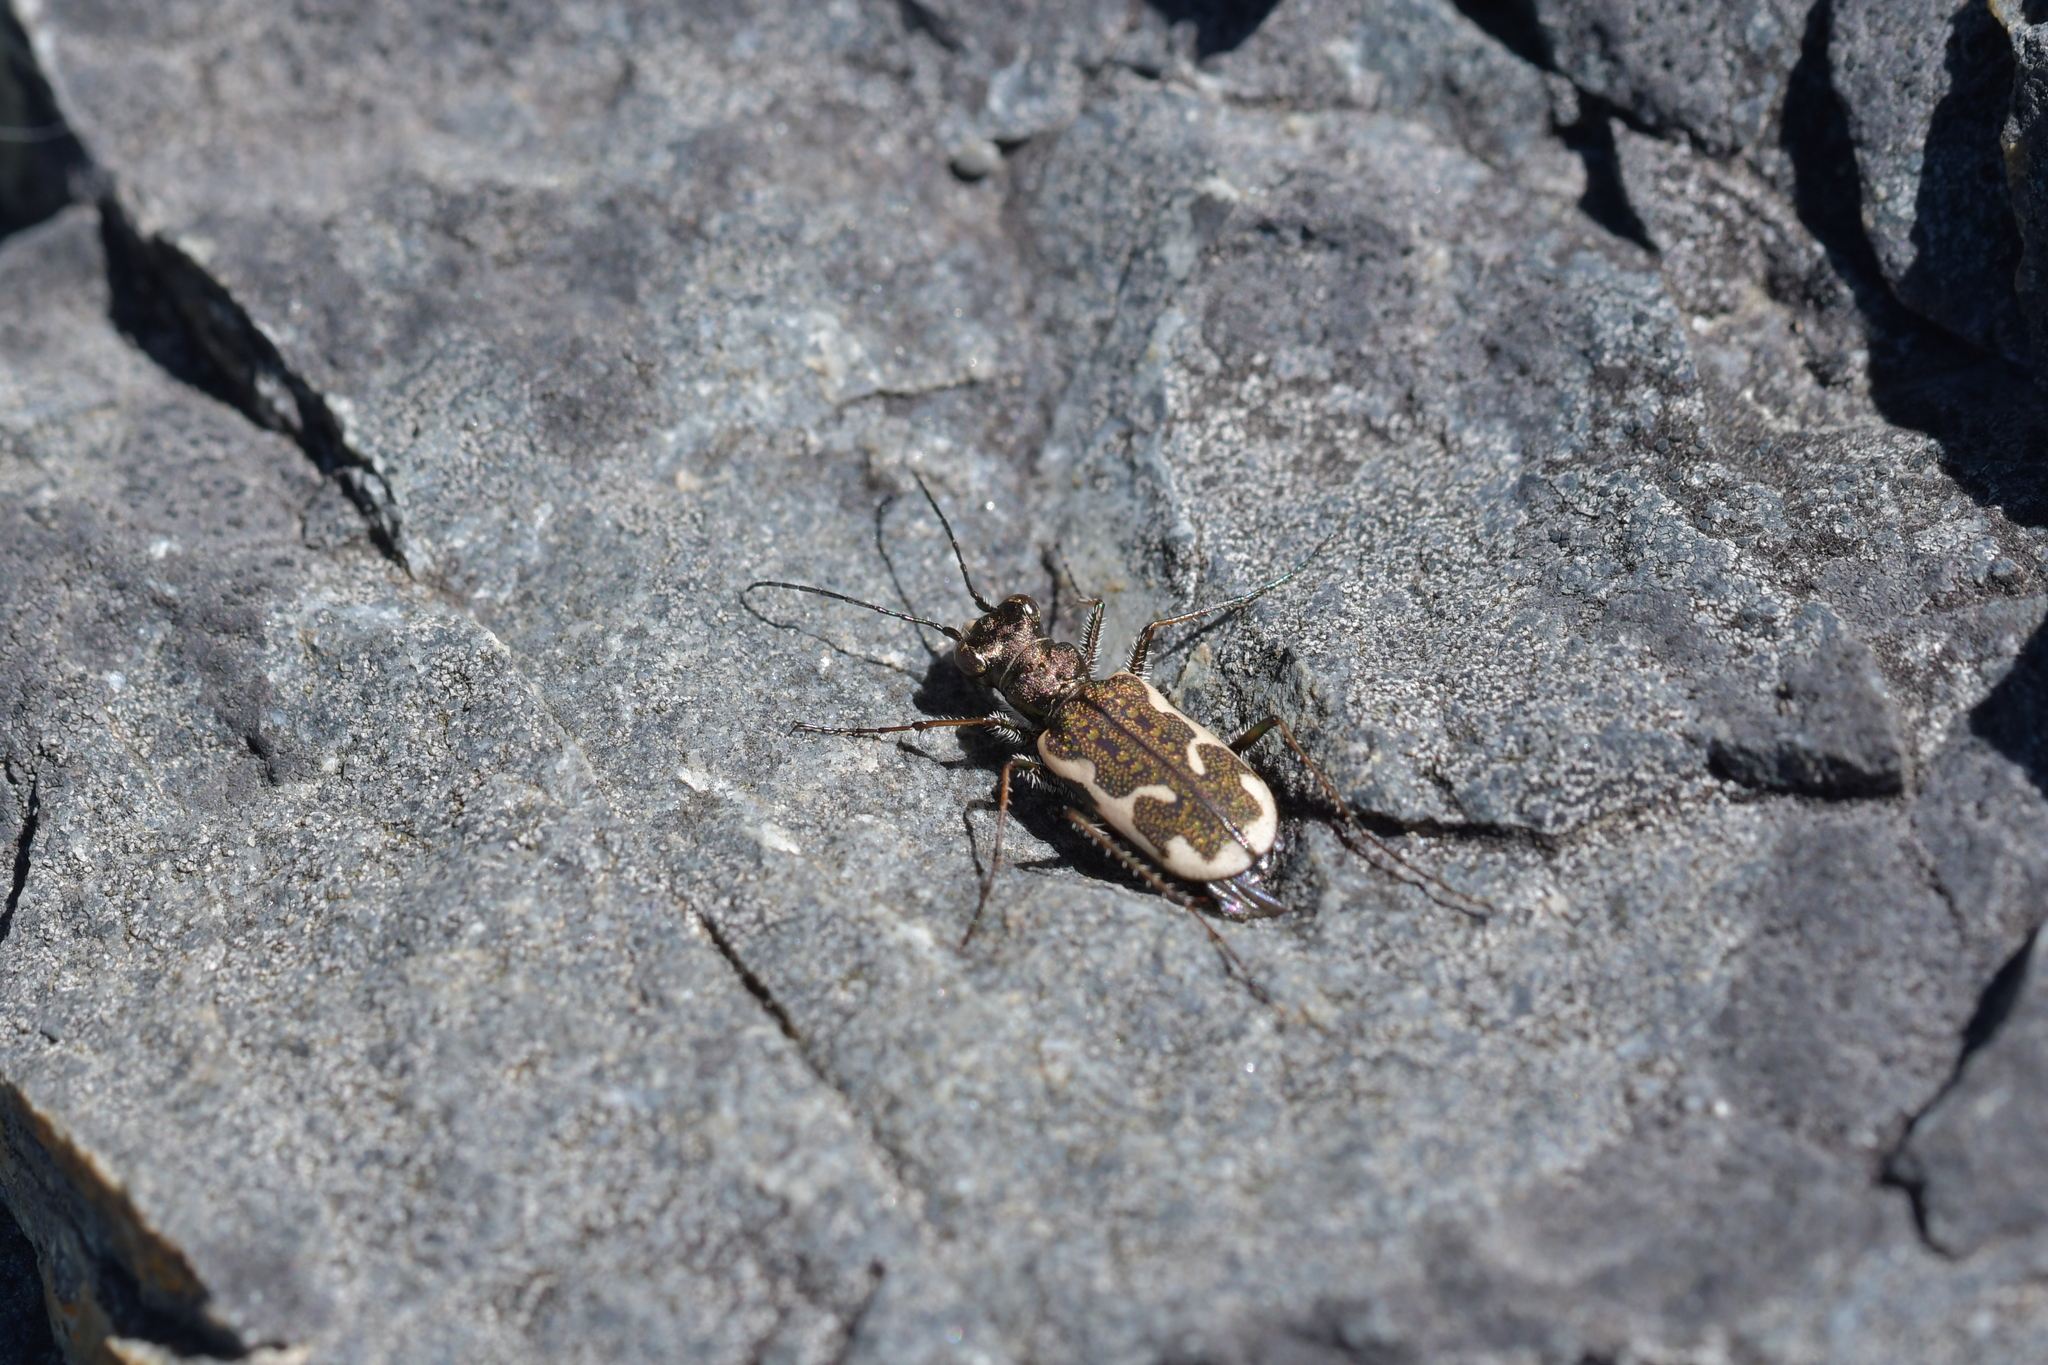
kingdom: Animalia
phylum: Arthropoda
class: Insecta
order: Coleoptera
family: Carabidae
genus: Neocicindela
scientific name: Neocicindela tuberculata
